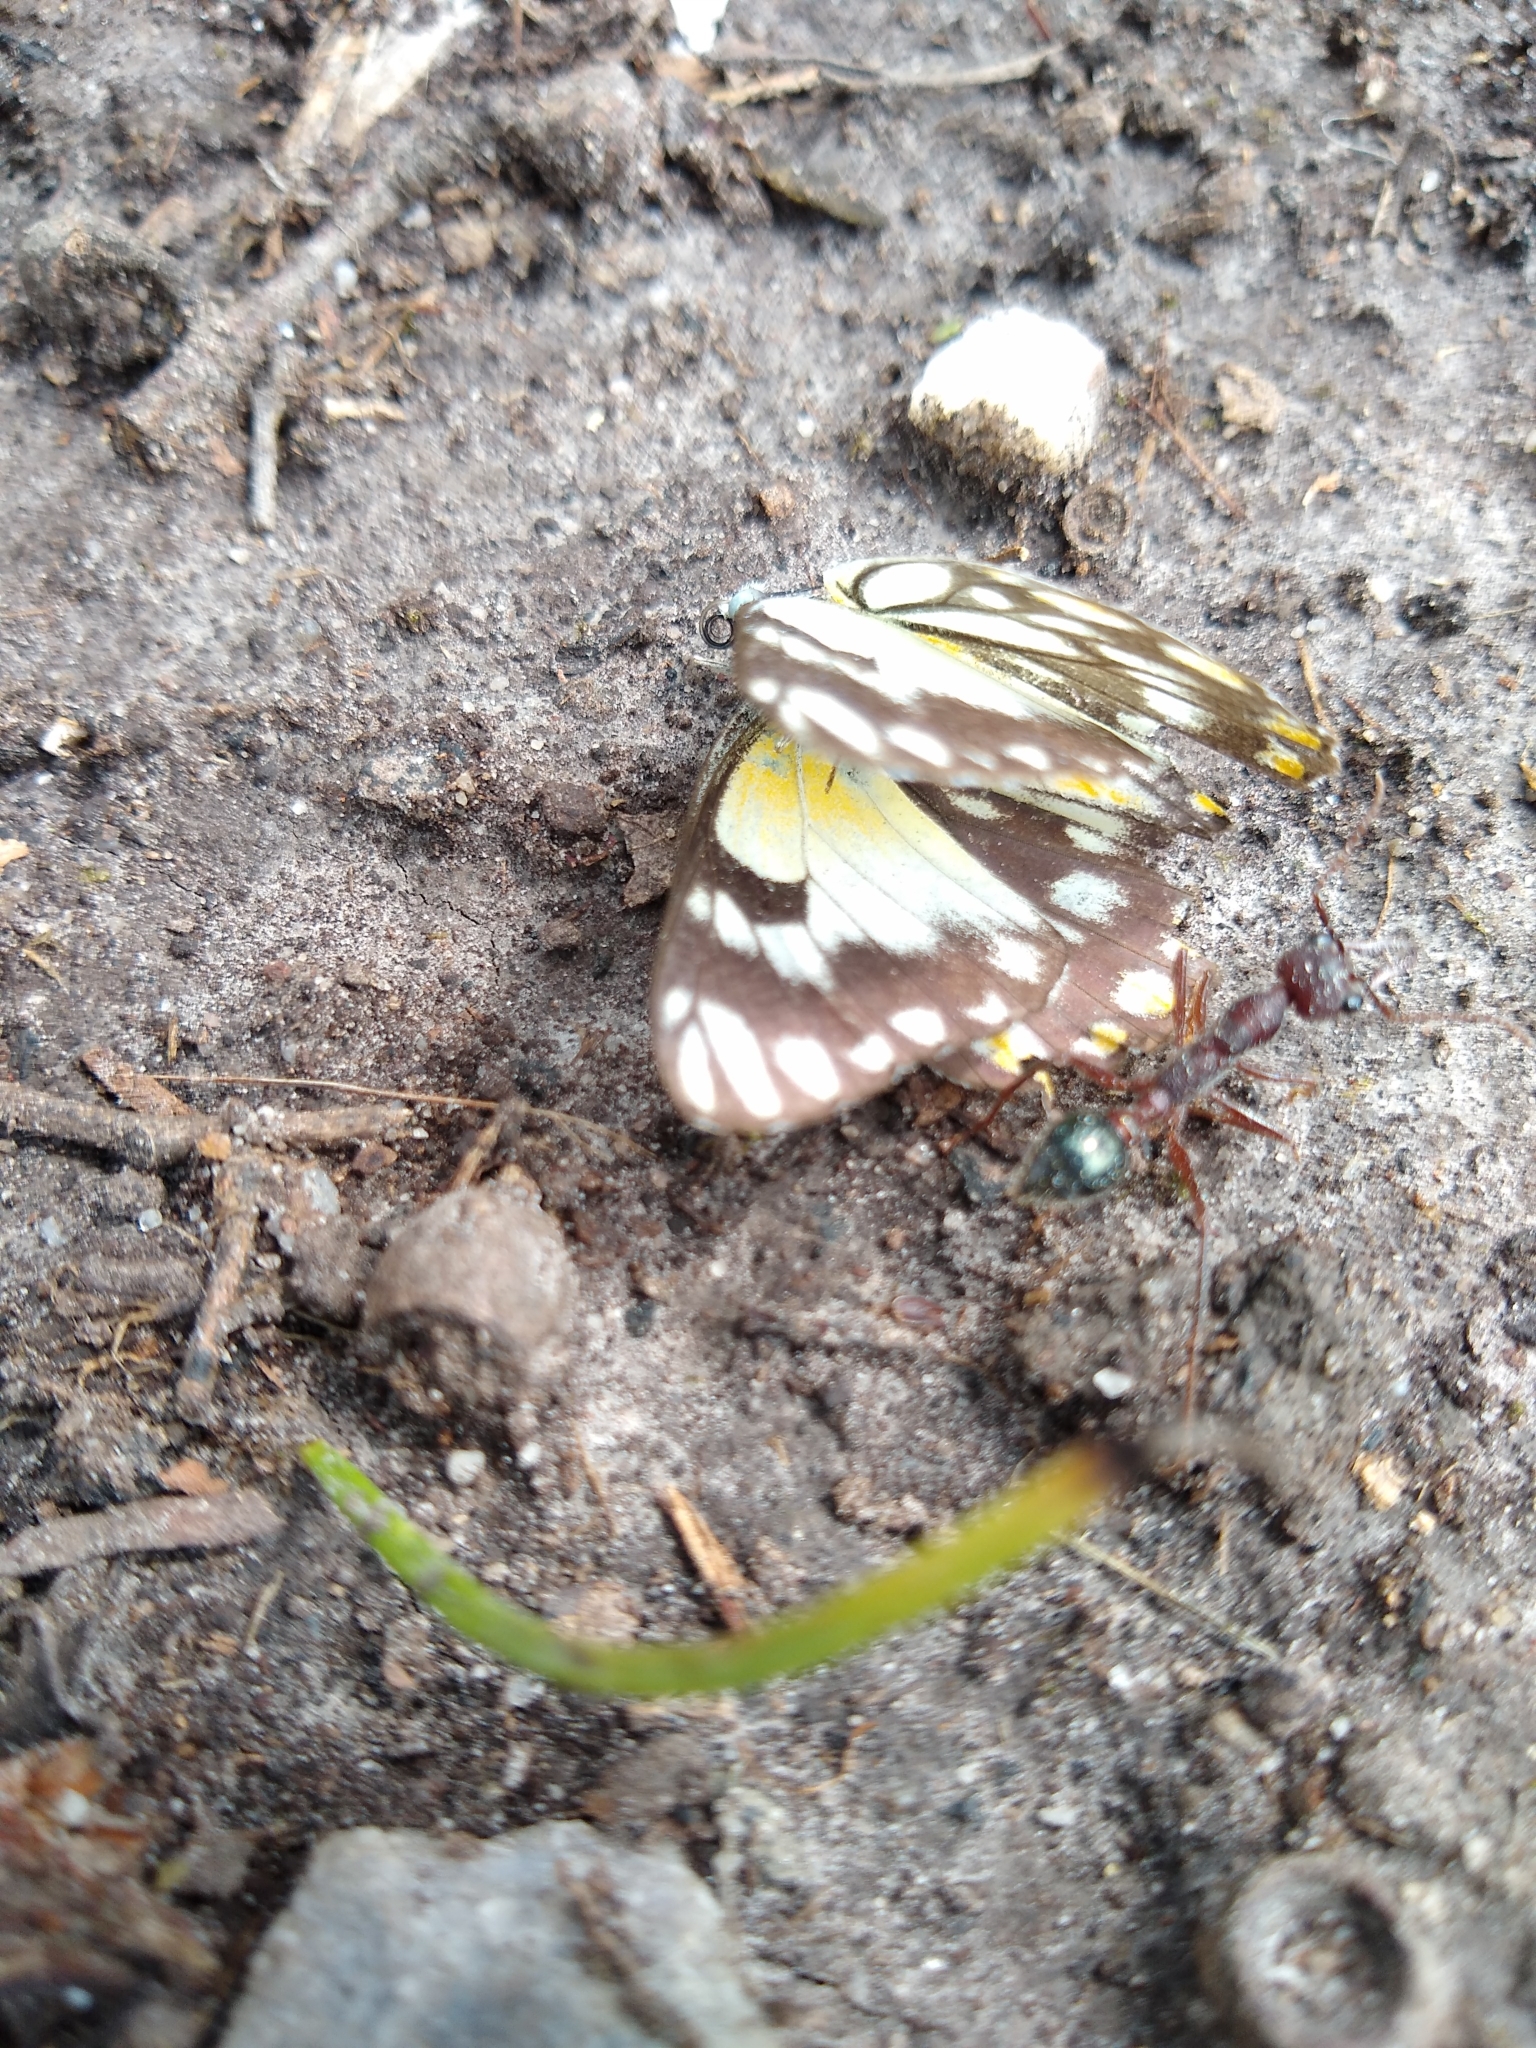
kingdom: Animalia
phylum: Arthropoda
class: Insecta
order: Lepidoptera
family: Pieridae
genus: Belenois
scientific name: Belenois java
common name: Caper white
